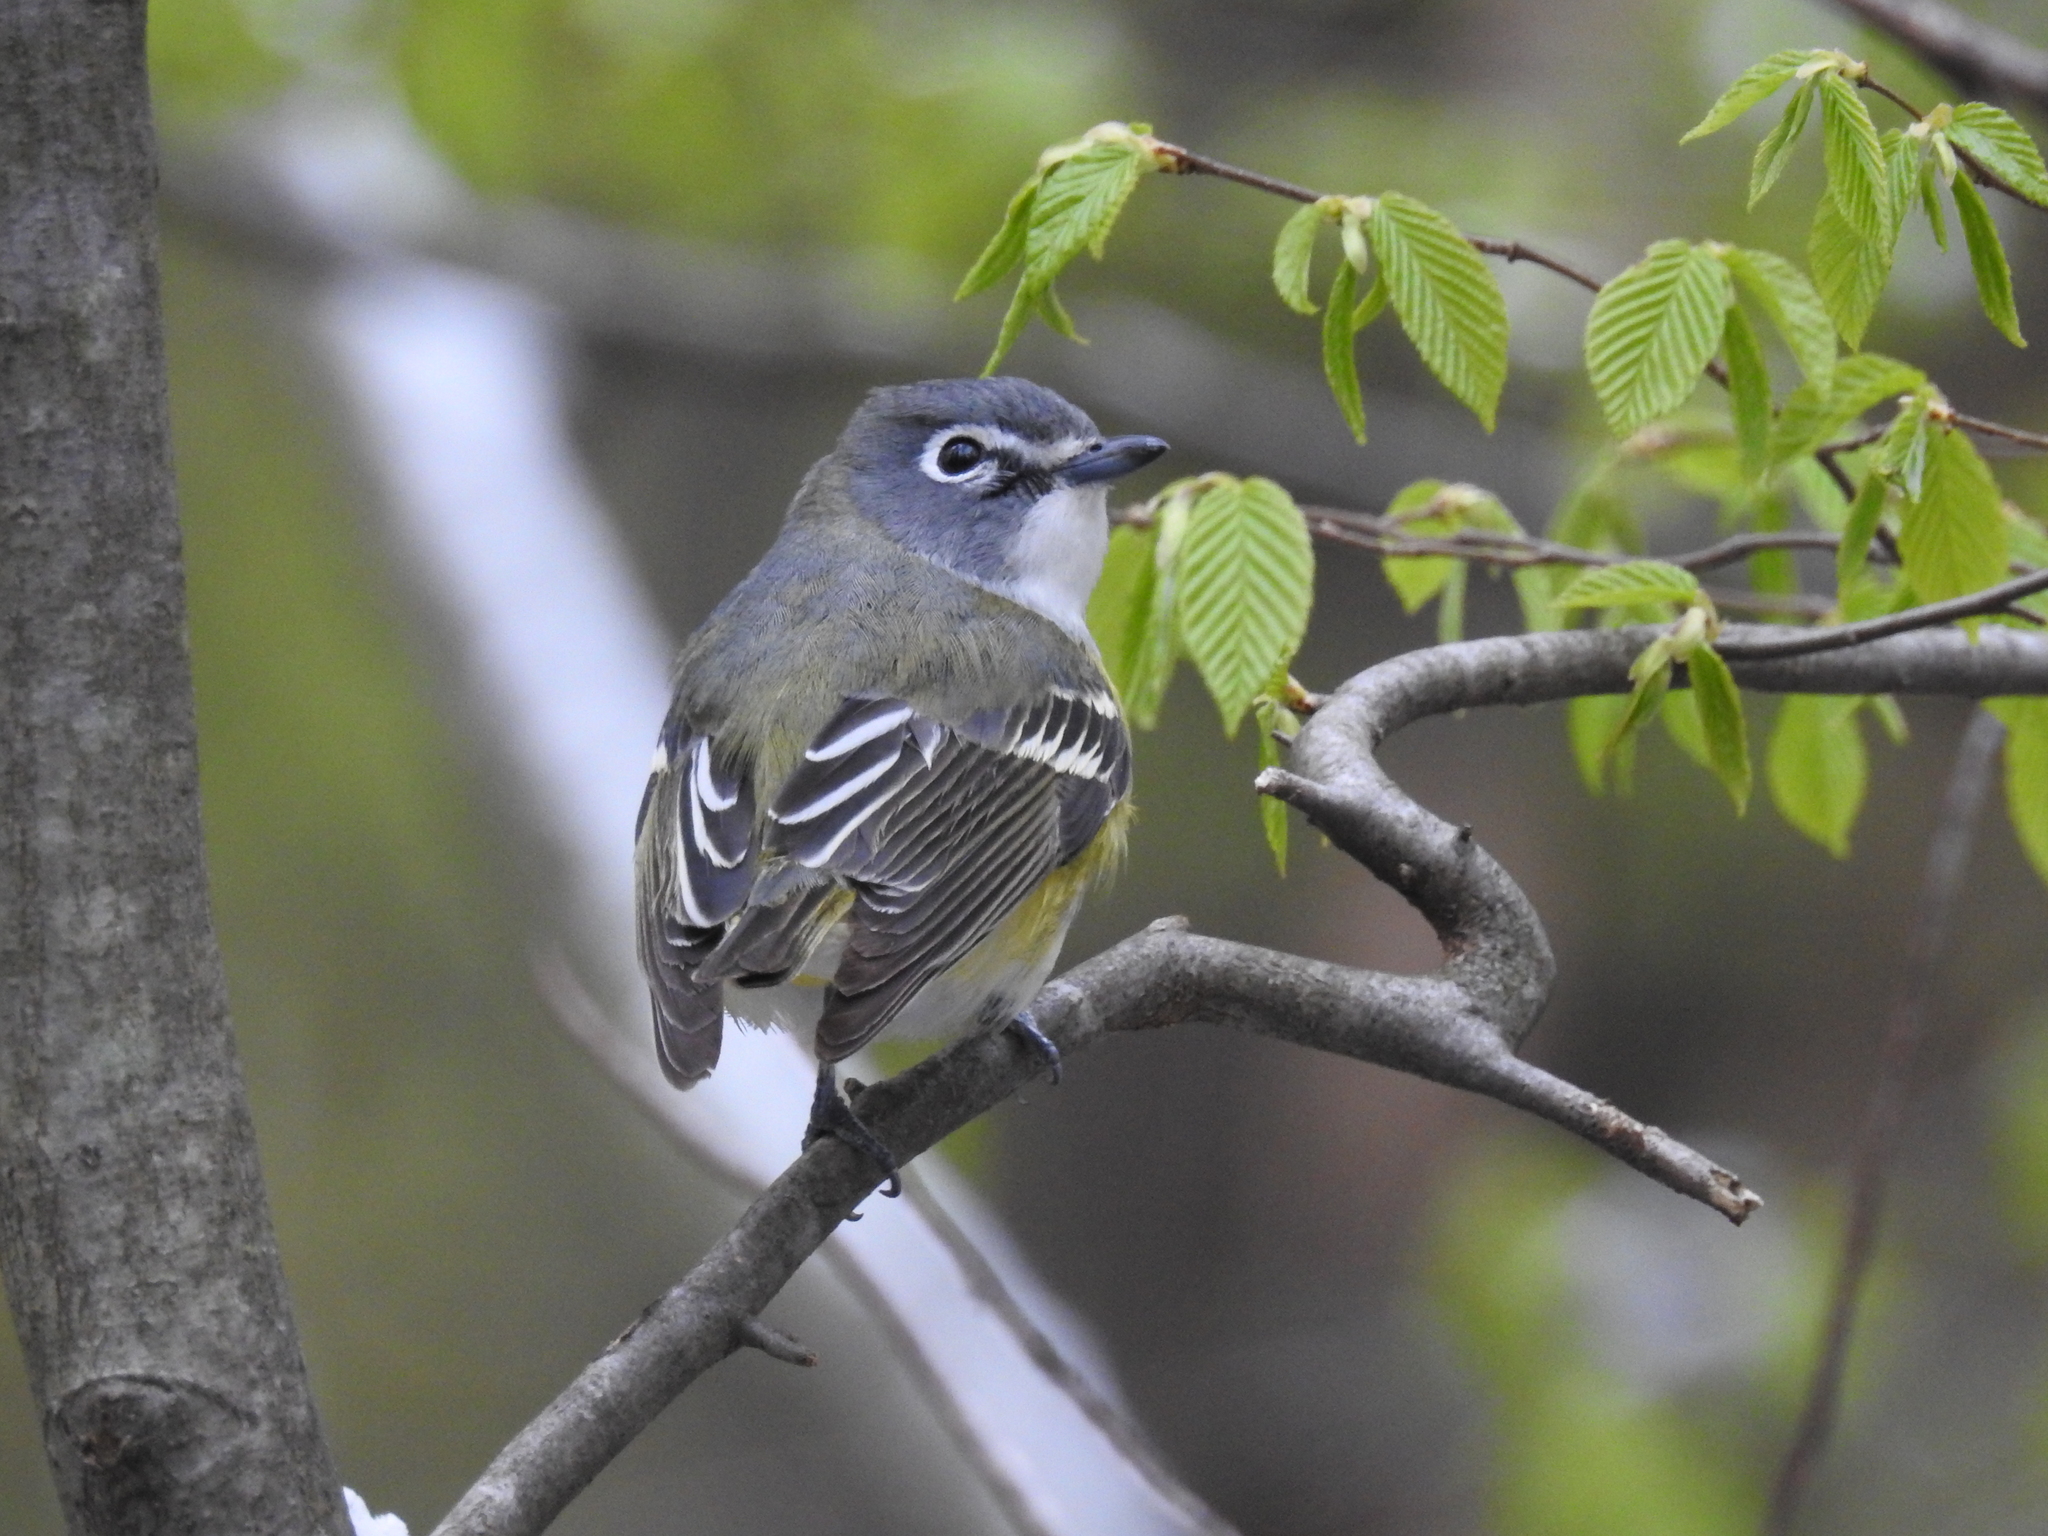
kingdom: Animalia
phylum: Chordata
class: Aves
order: Passeriformes
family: Vireonidae
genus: Vireo
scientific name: Vireo solitarius
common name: Blue-headed vireo
